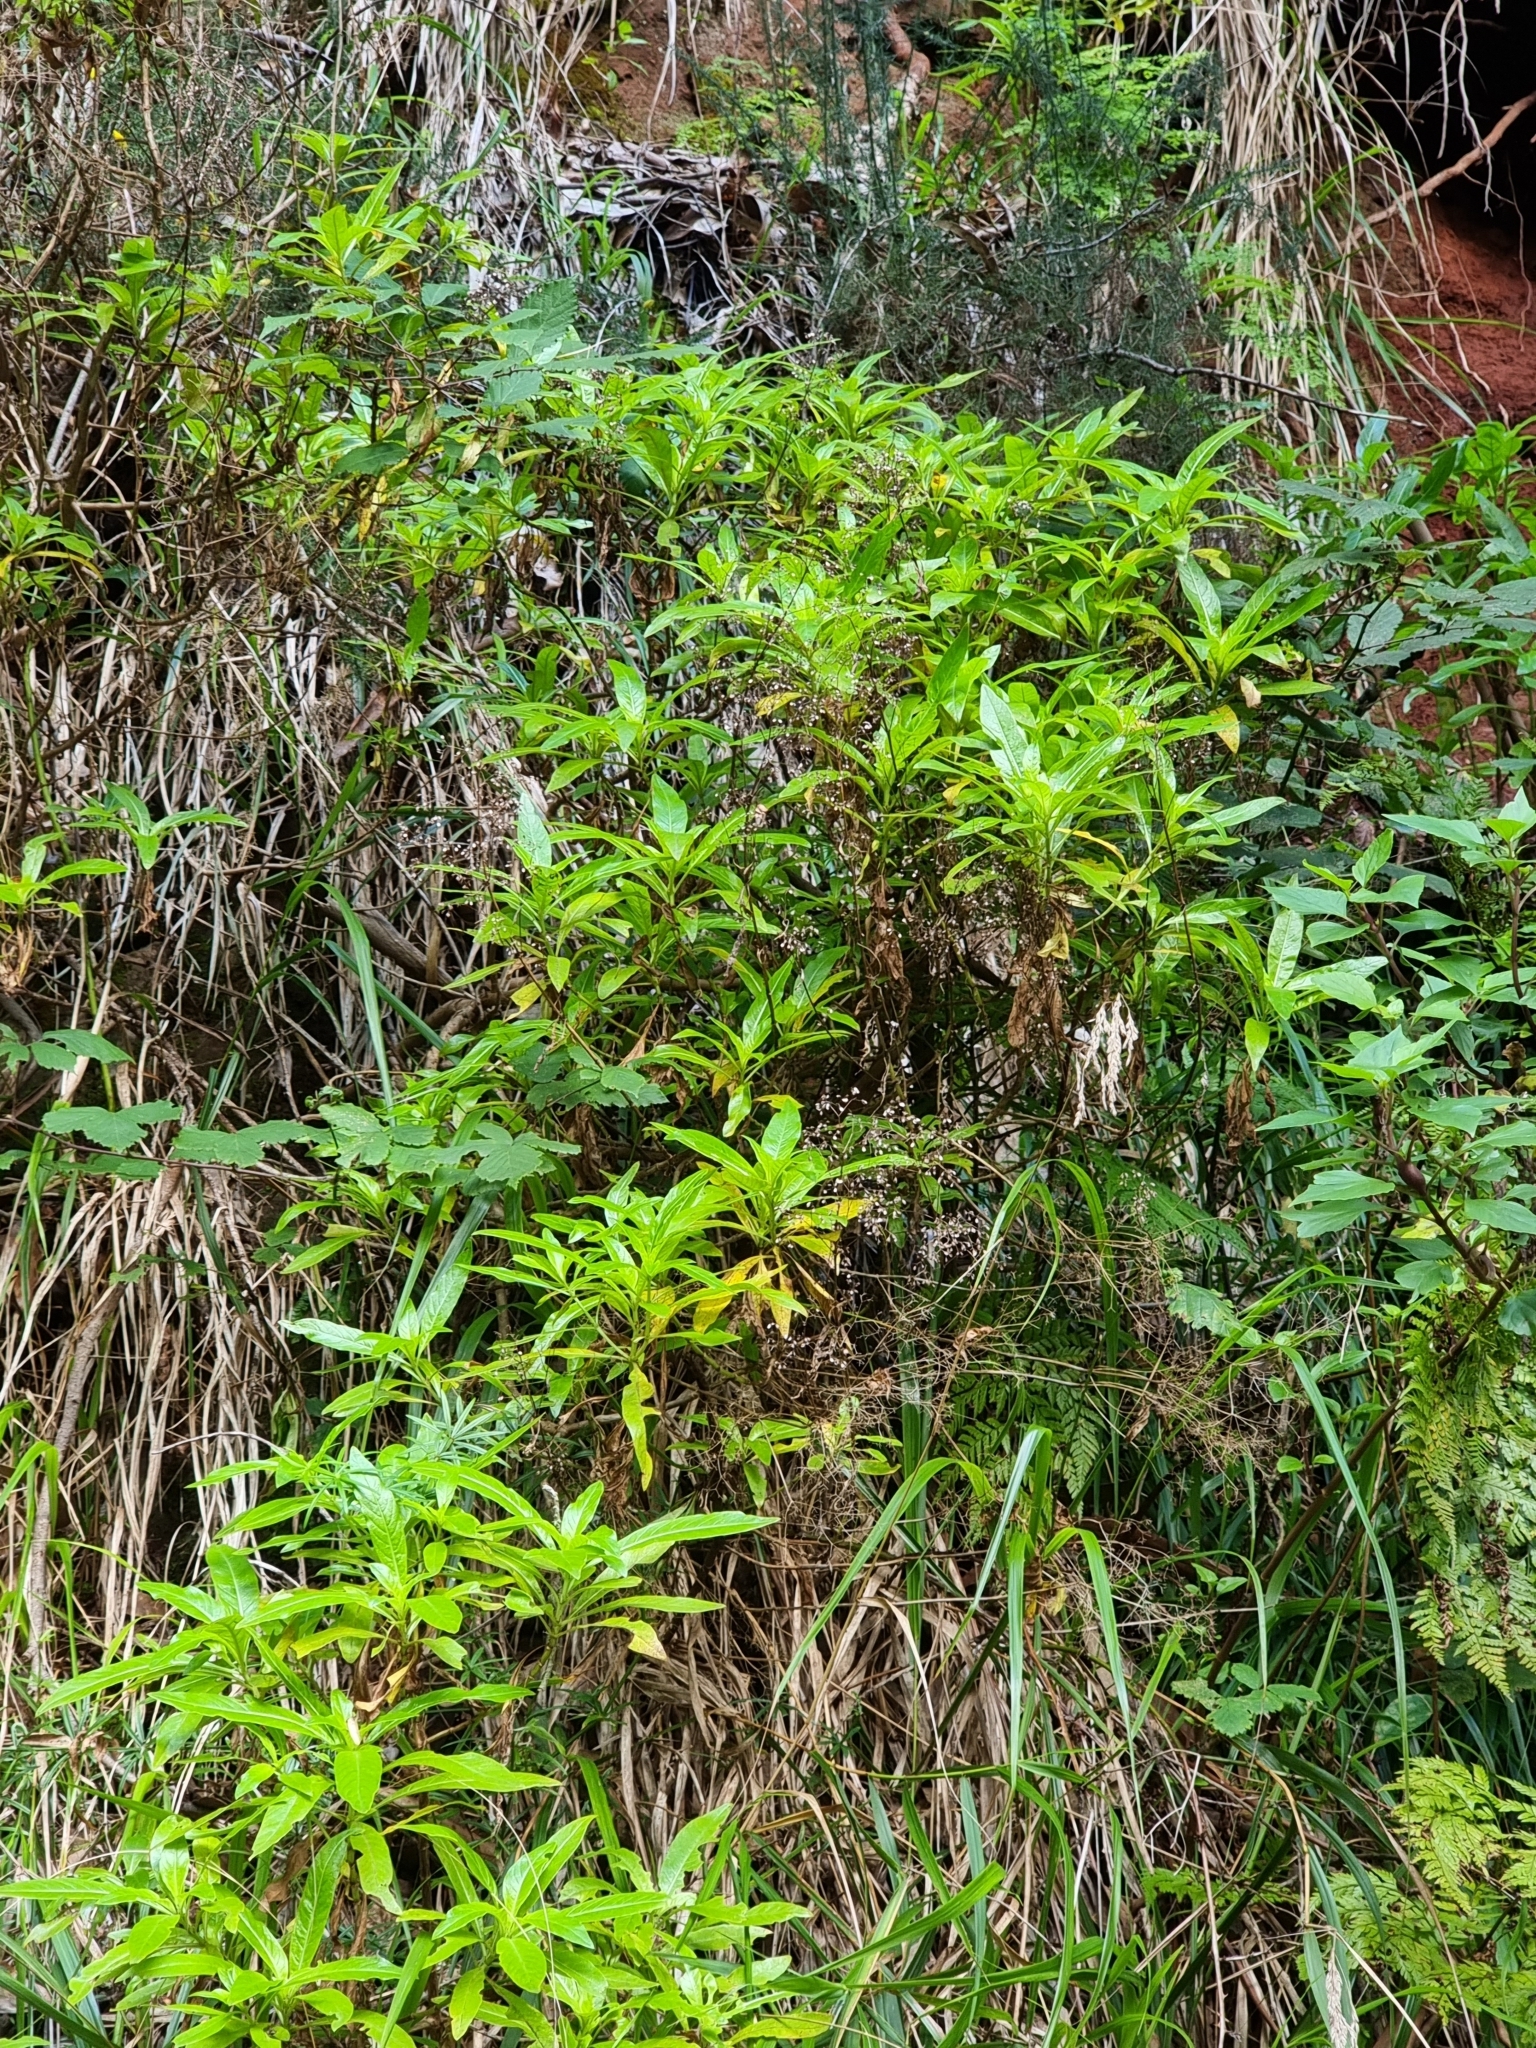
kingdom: Plantae
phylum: Tracheophyta
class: Magnoliopsida
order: Gentianales
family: Rubiaceae
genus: Phyllis
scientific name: Phyllis nobla
